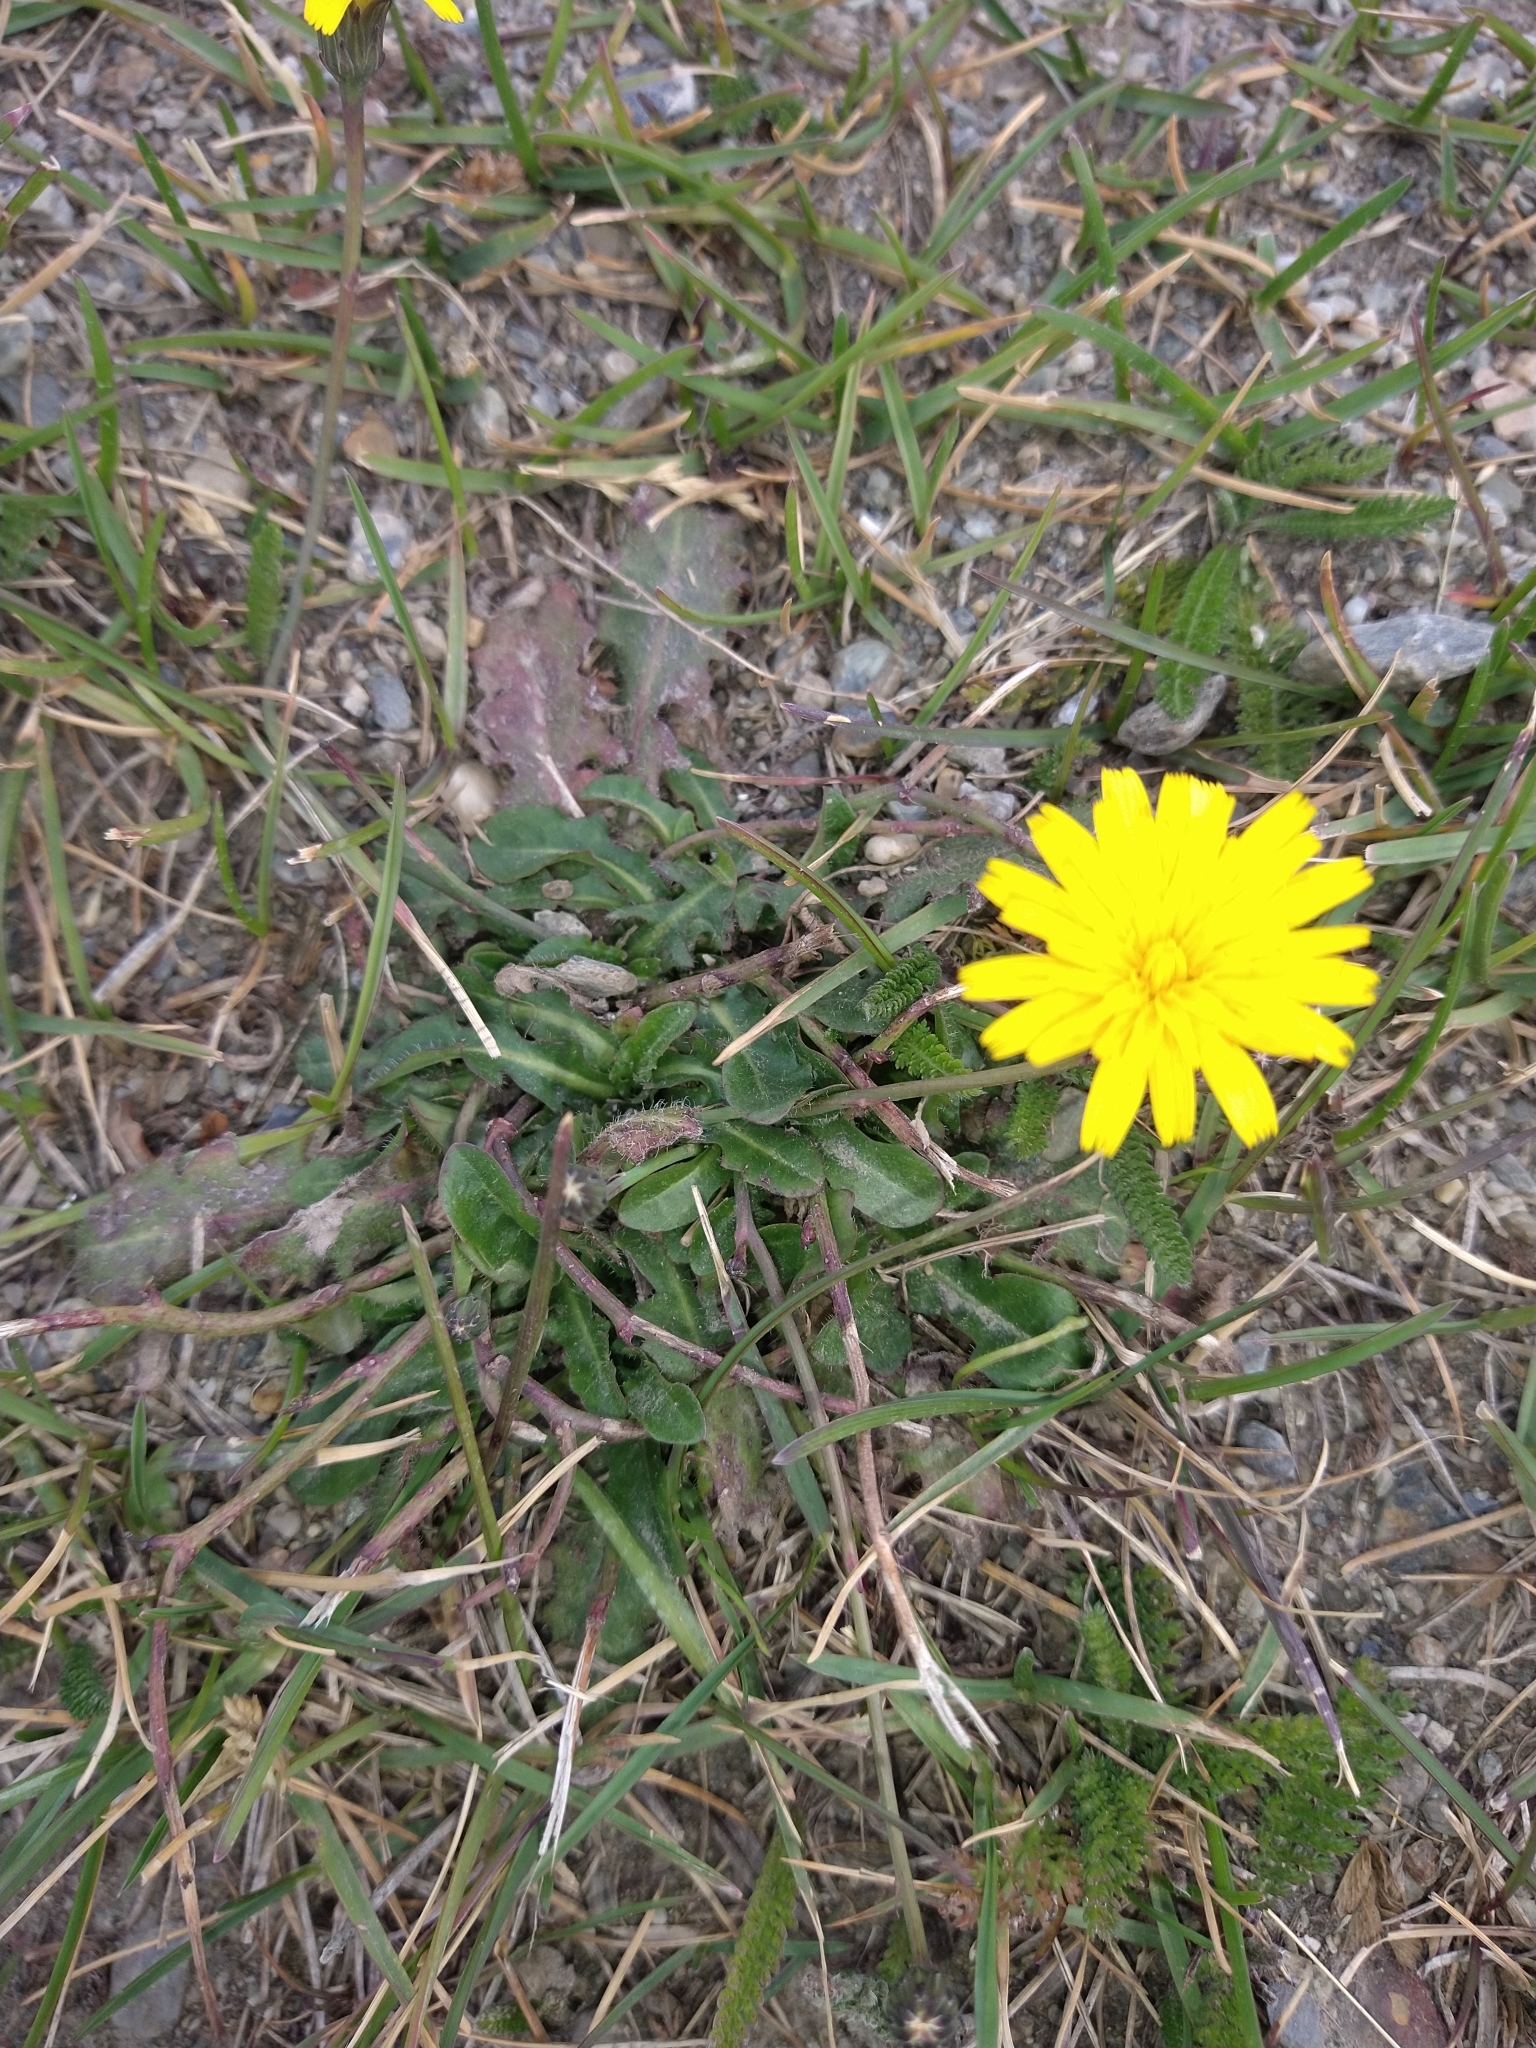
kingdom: Plantae
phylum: Tracheophyta
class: Magnoliopsida
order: Asterales
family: Asteraceae
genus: Hypochaeris
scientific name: Hypochaeris radicata
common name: Flatweed
